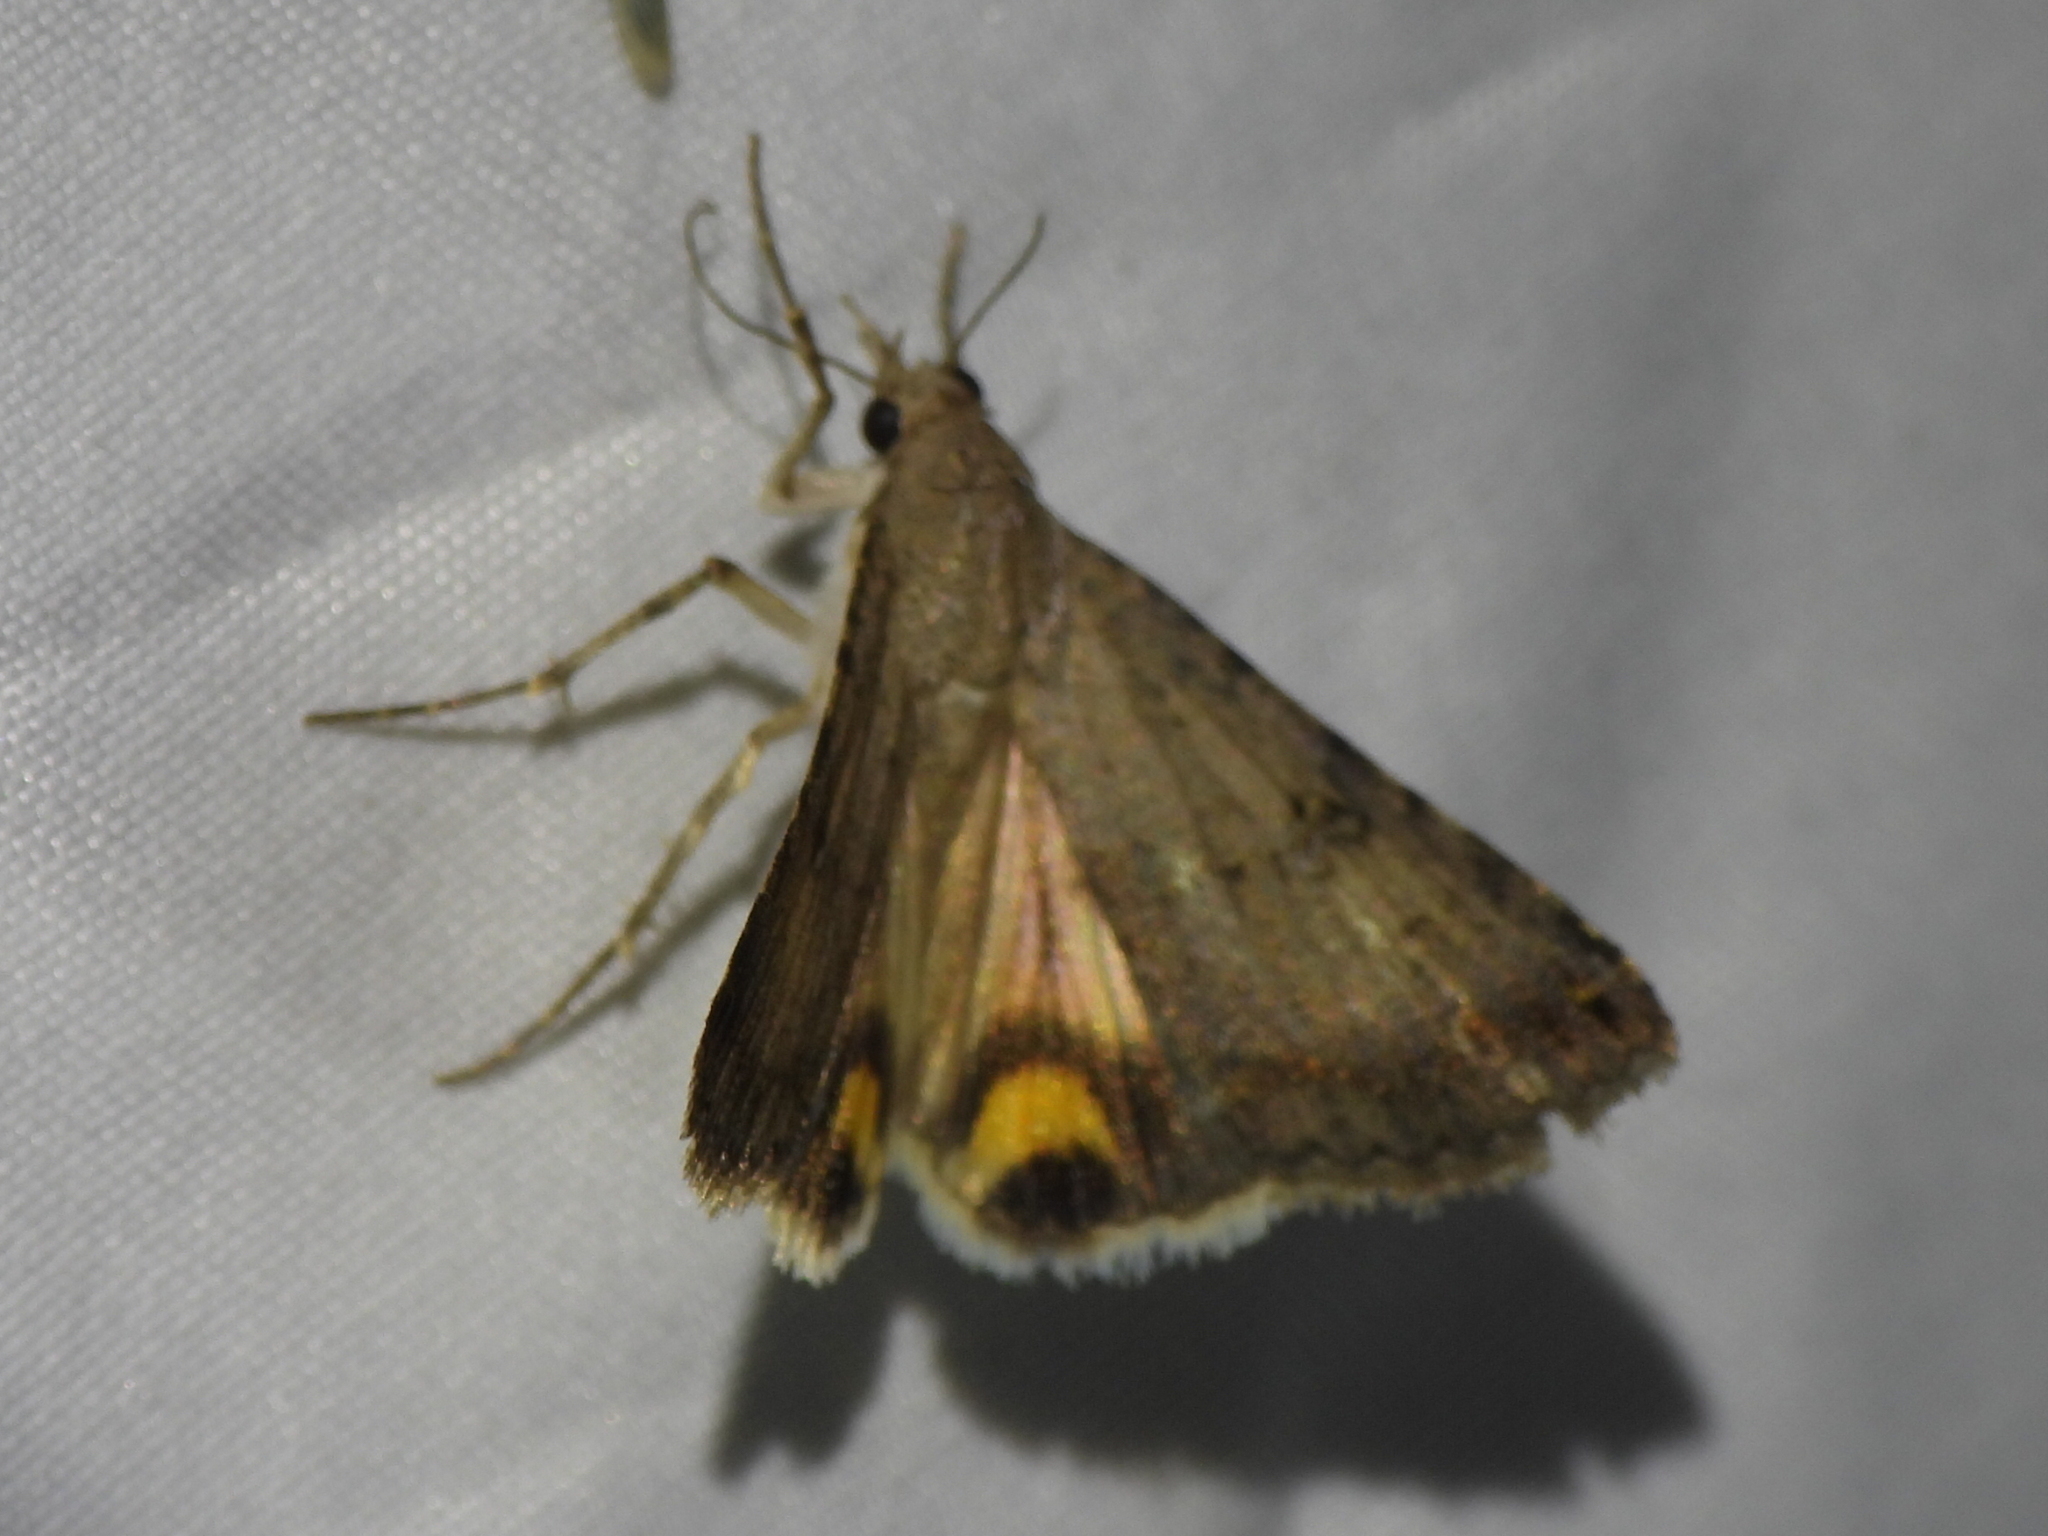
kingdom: Animalia
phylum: Arthropoda
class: Insecta
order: Lepidoptera
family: Erebidae
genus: Bulia
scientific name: Bulia deducta
